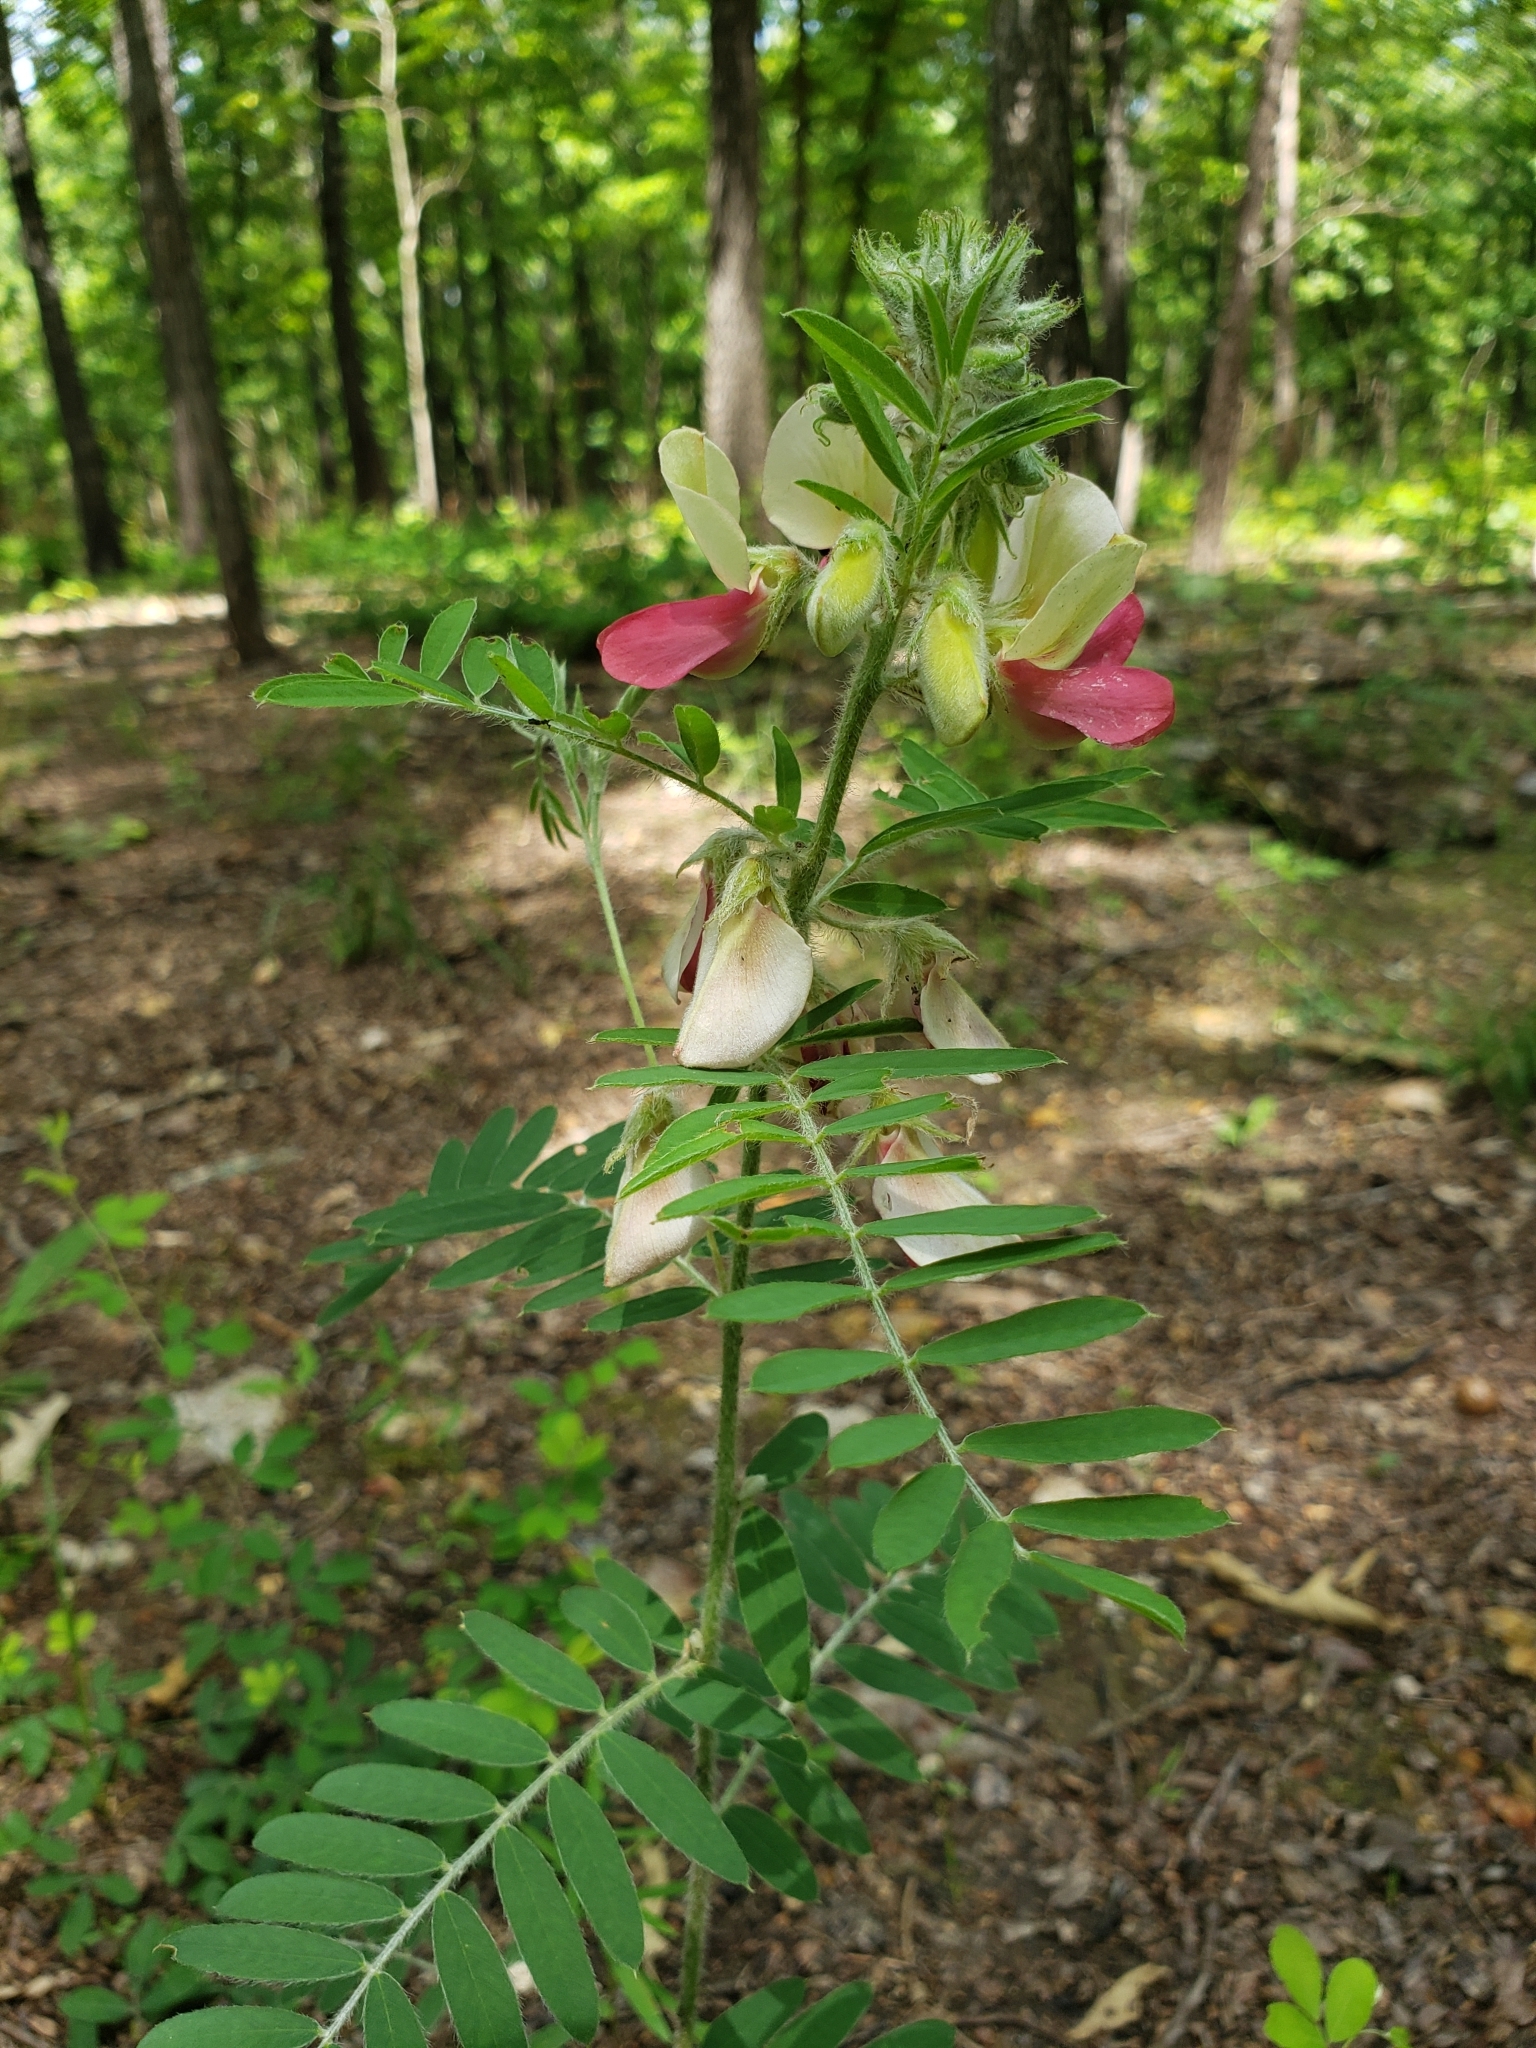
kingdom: Plantae
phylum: Tracheophyta
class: Magnoliopsida
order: Fabales
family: Fabaceae
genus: Tephrosia
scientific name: Tephrosia virginiana
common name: Rabbit-pea
